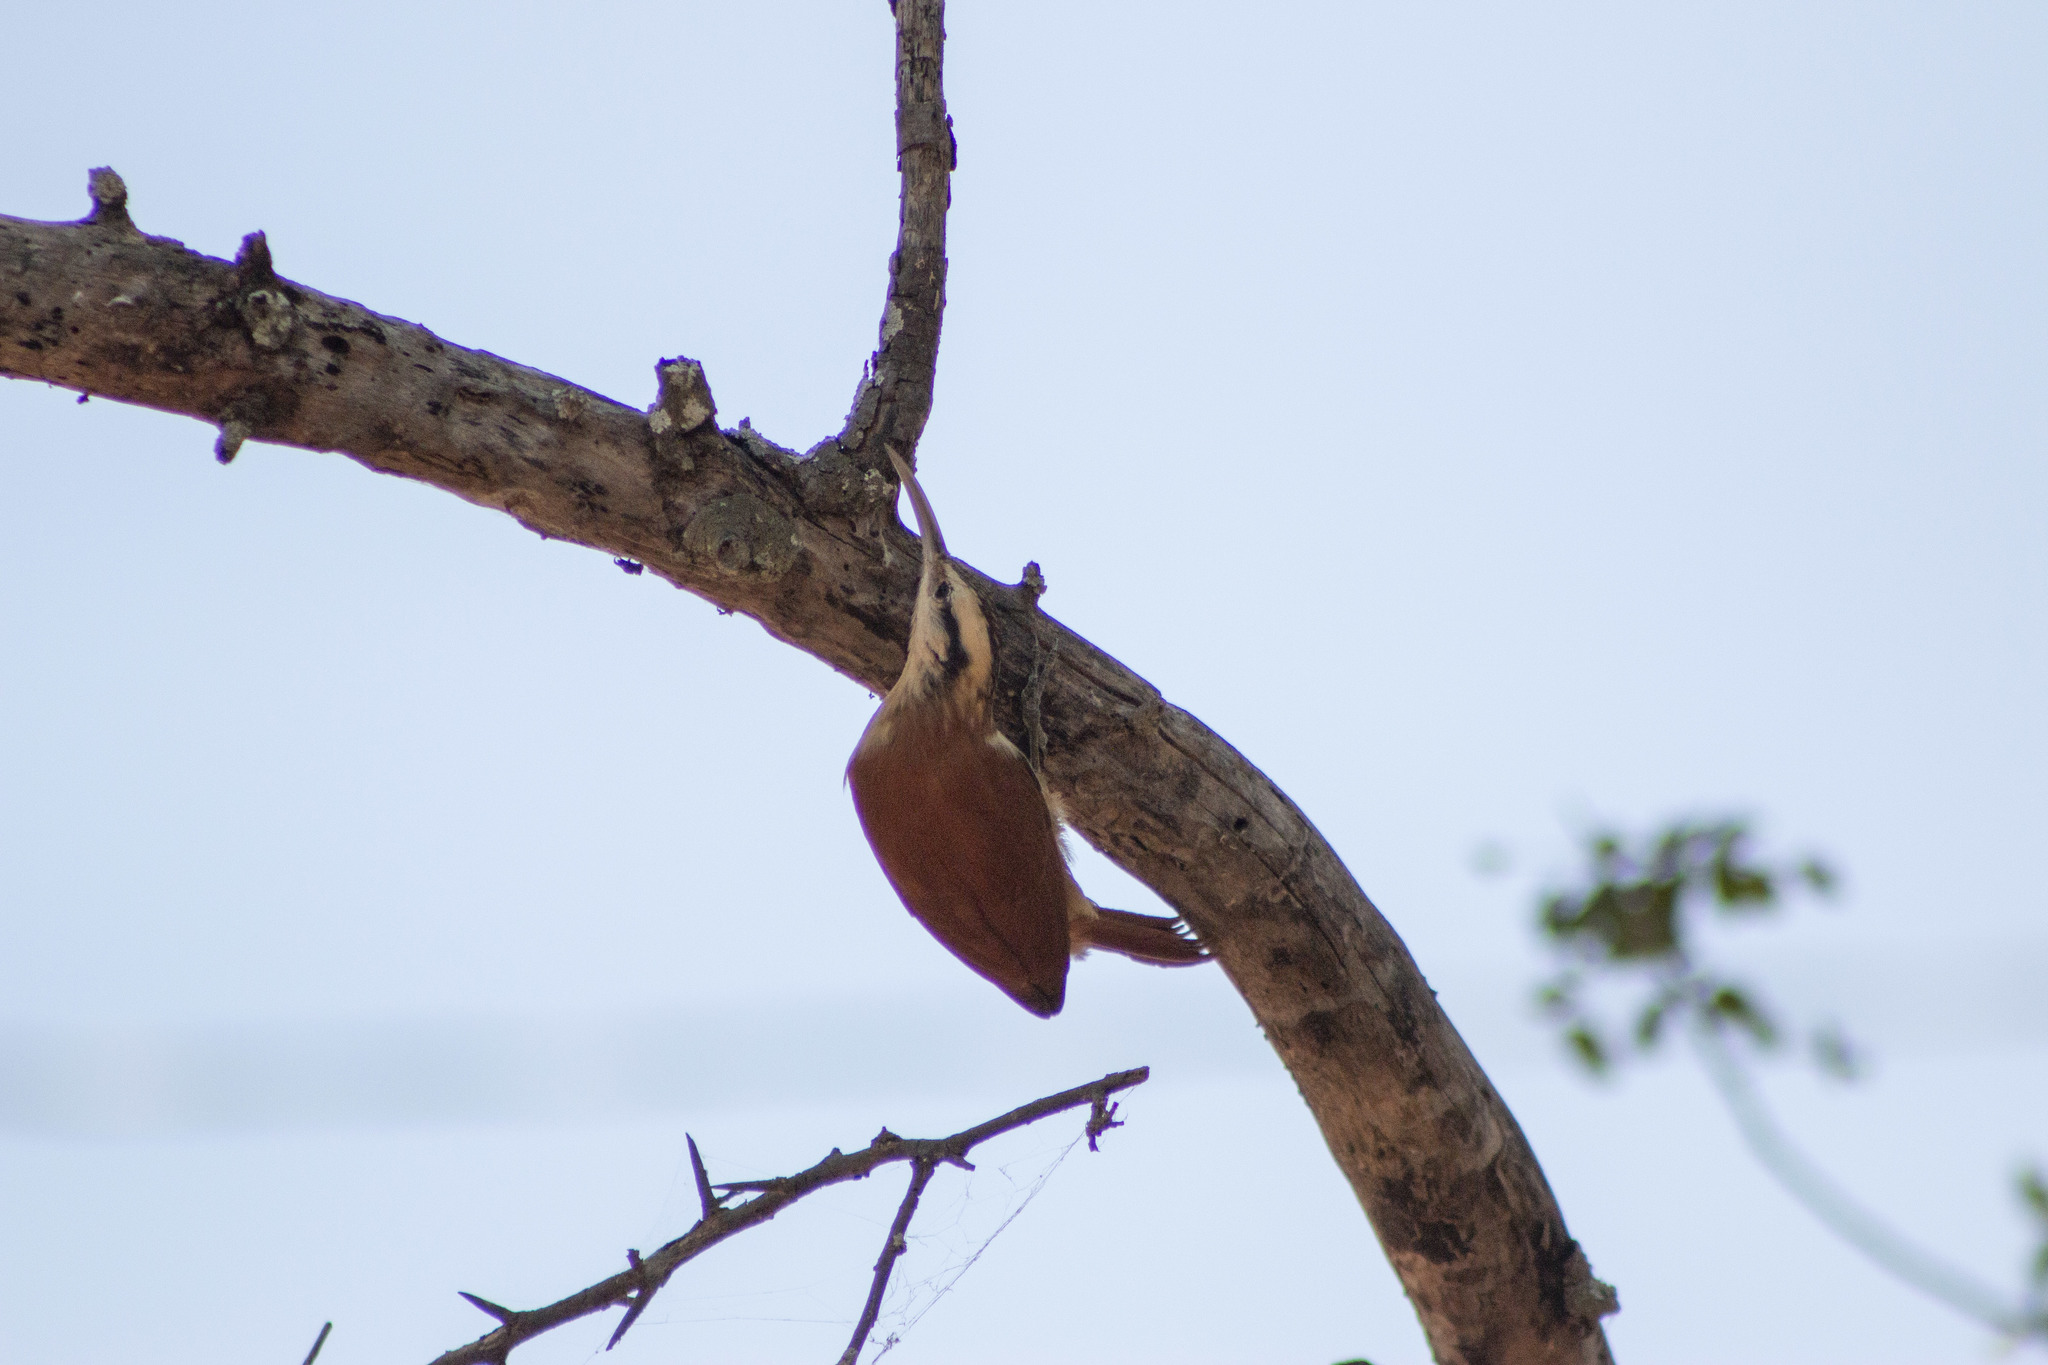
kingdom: Animalia
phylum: Chordata
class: Aves
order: Passeriformes
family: Furnariidae
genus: Lepidocolaptes
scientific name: Lepidocolaptes angustirostris
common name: Narrow-billed woodcreeper
